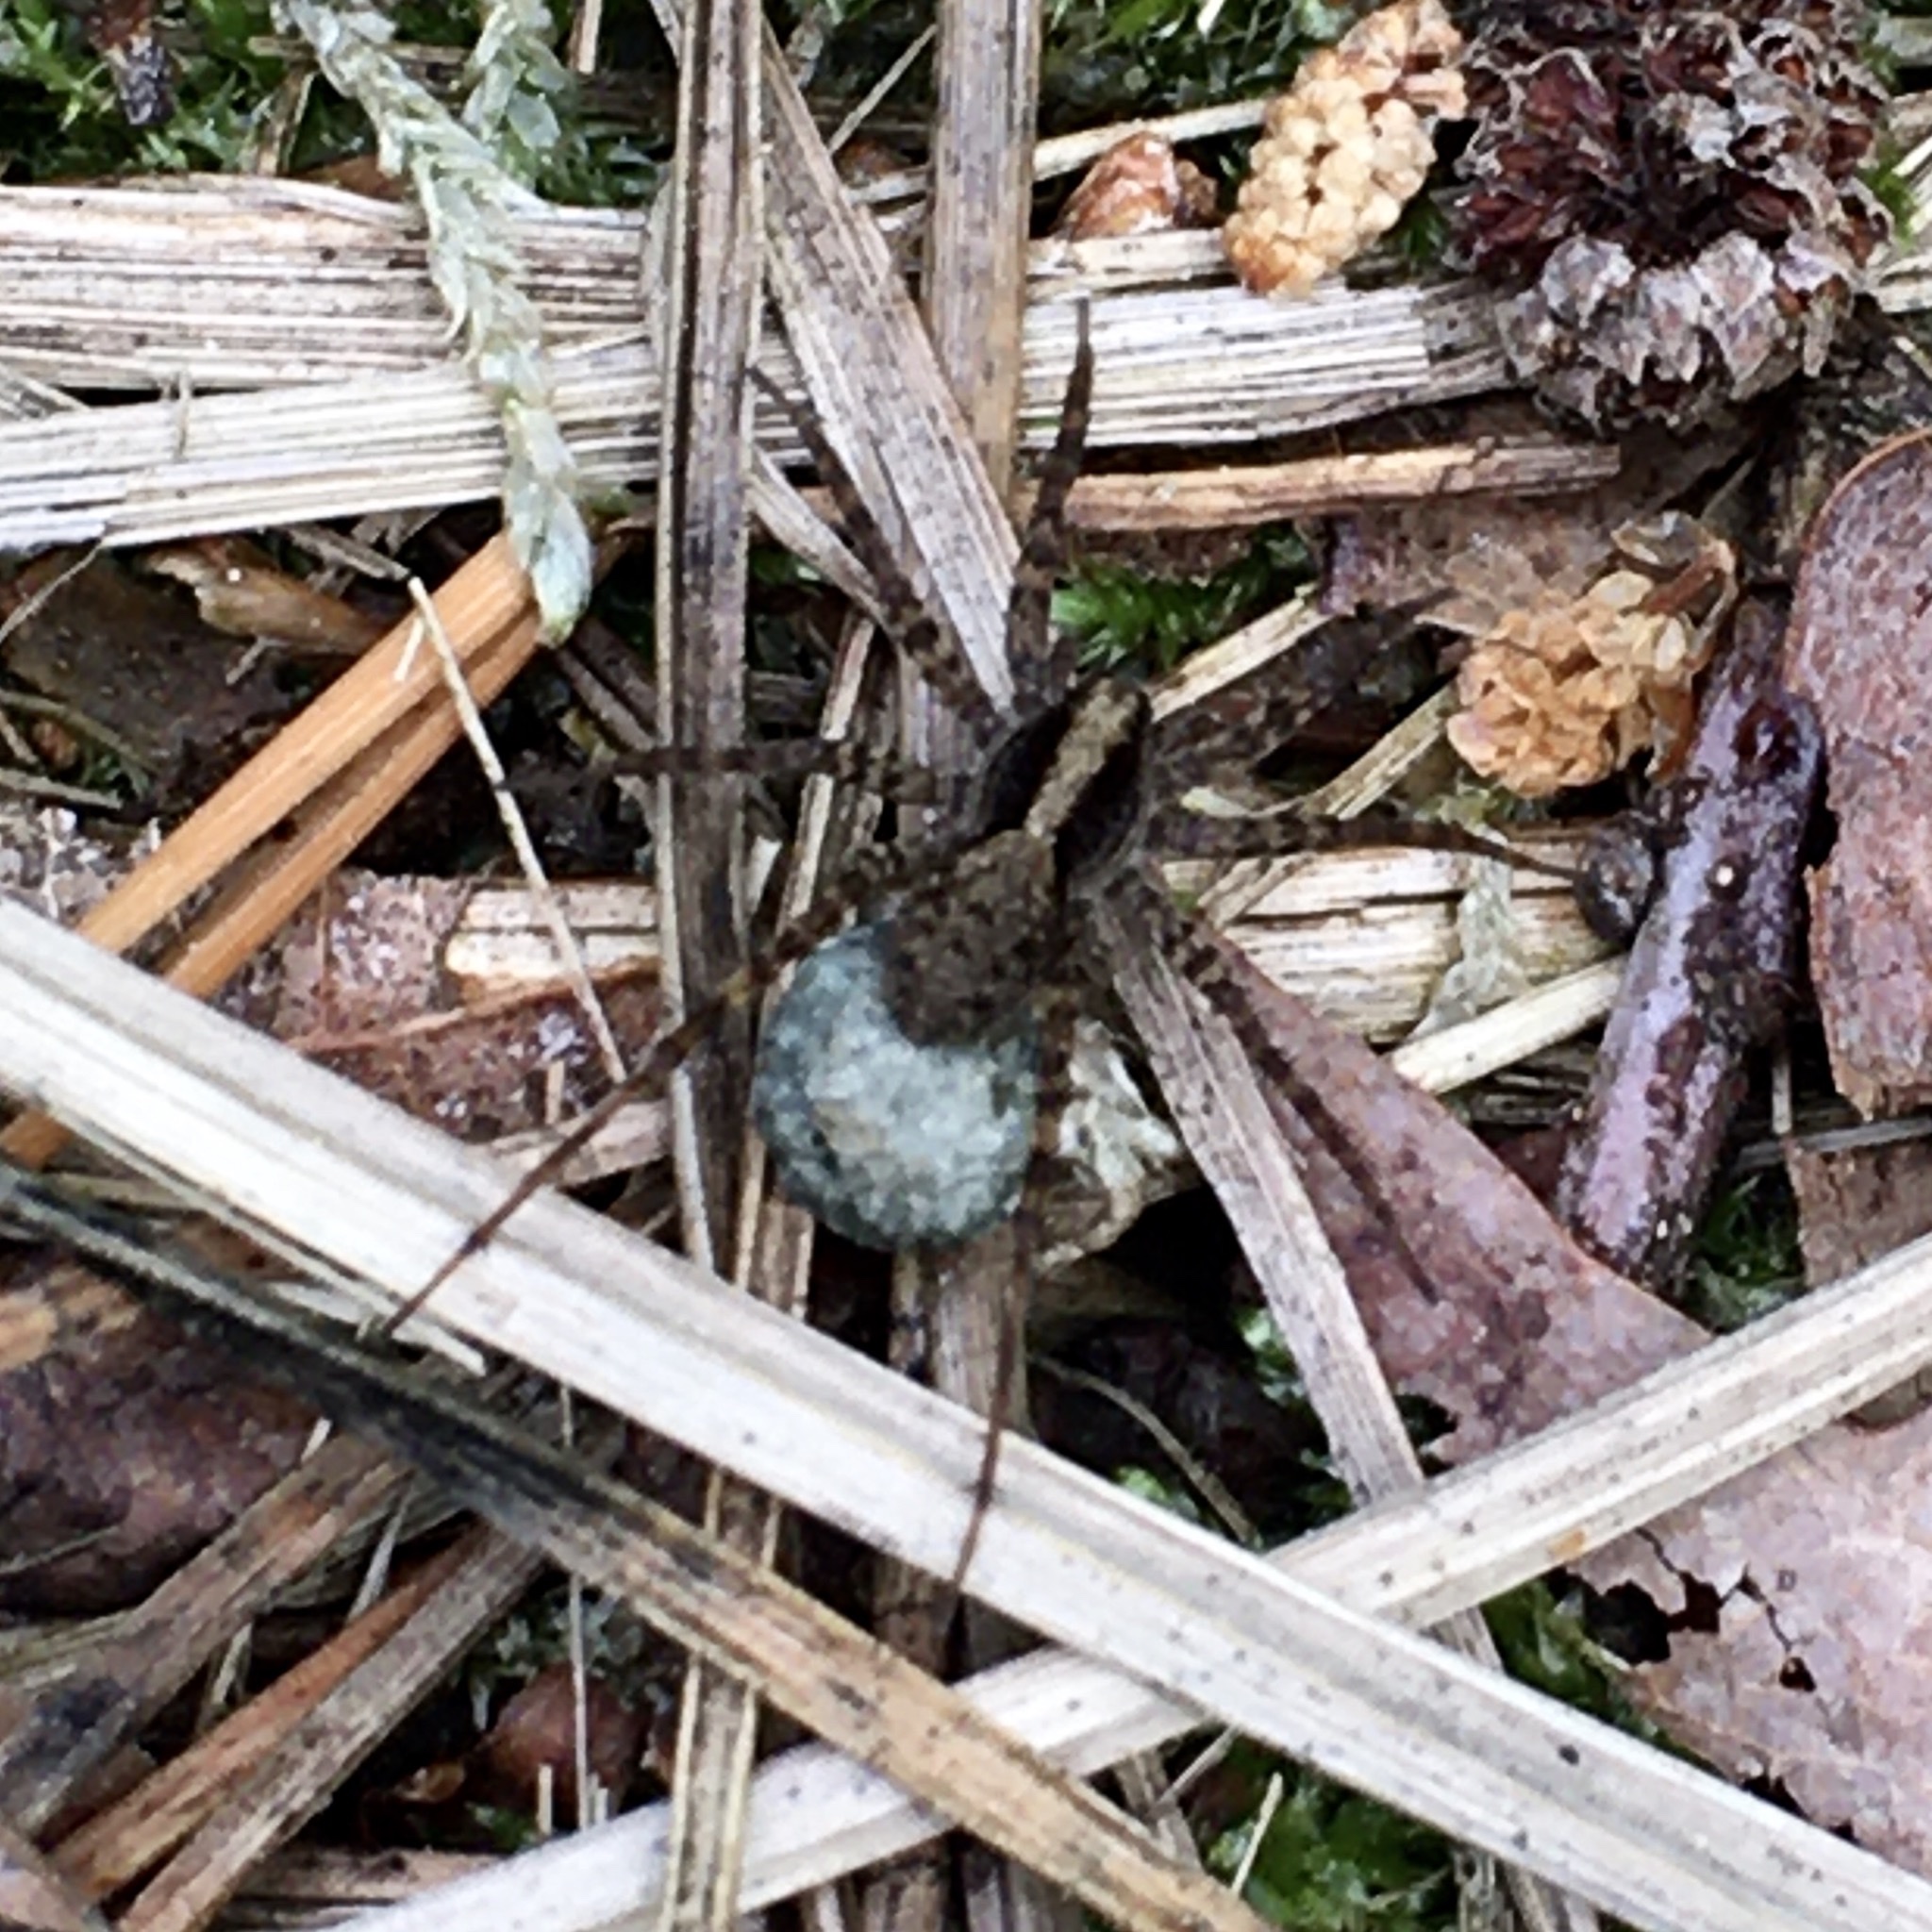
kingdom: Animalia
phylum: Arthropoda
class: Arachnida
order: Araneae
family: Lycosidae
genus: Pardosa
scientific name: Pardosa
